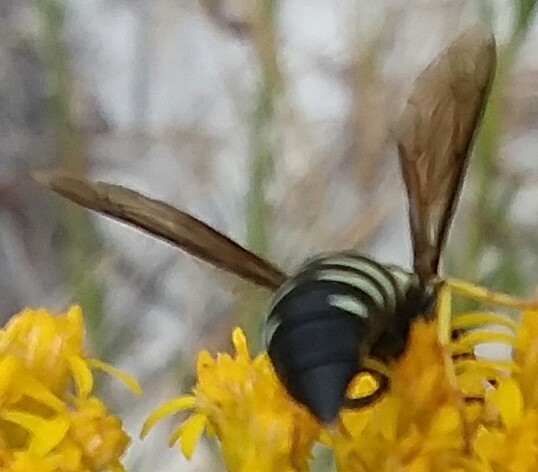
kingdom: Animalia
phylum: Arthropoda
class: Insecta
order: Hymenoptera
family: Crabronidae
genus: Bicyrtes
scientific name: Bicyrtes quadrifasciatus
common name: Four-banded stink bug hunter wasp
